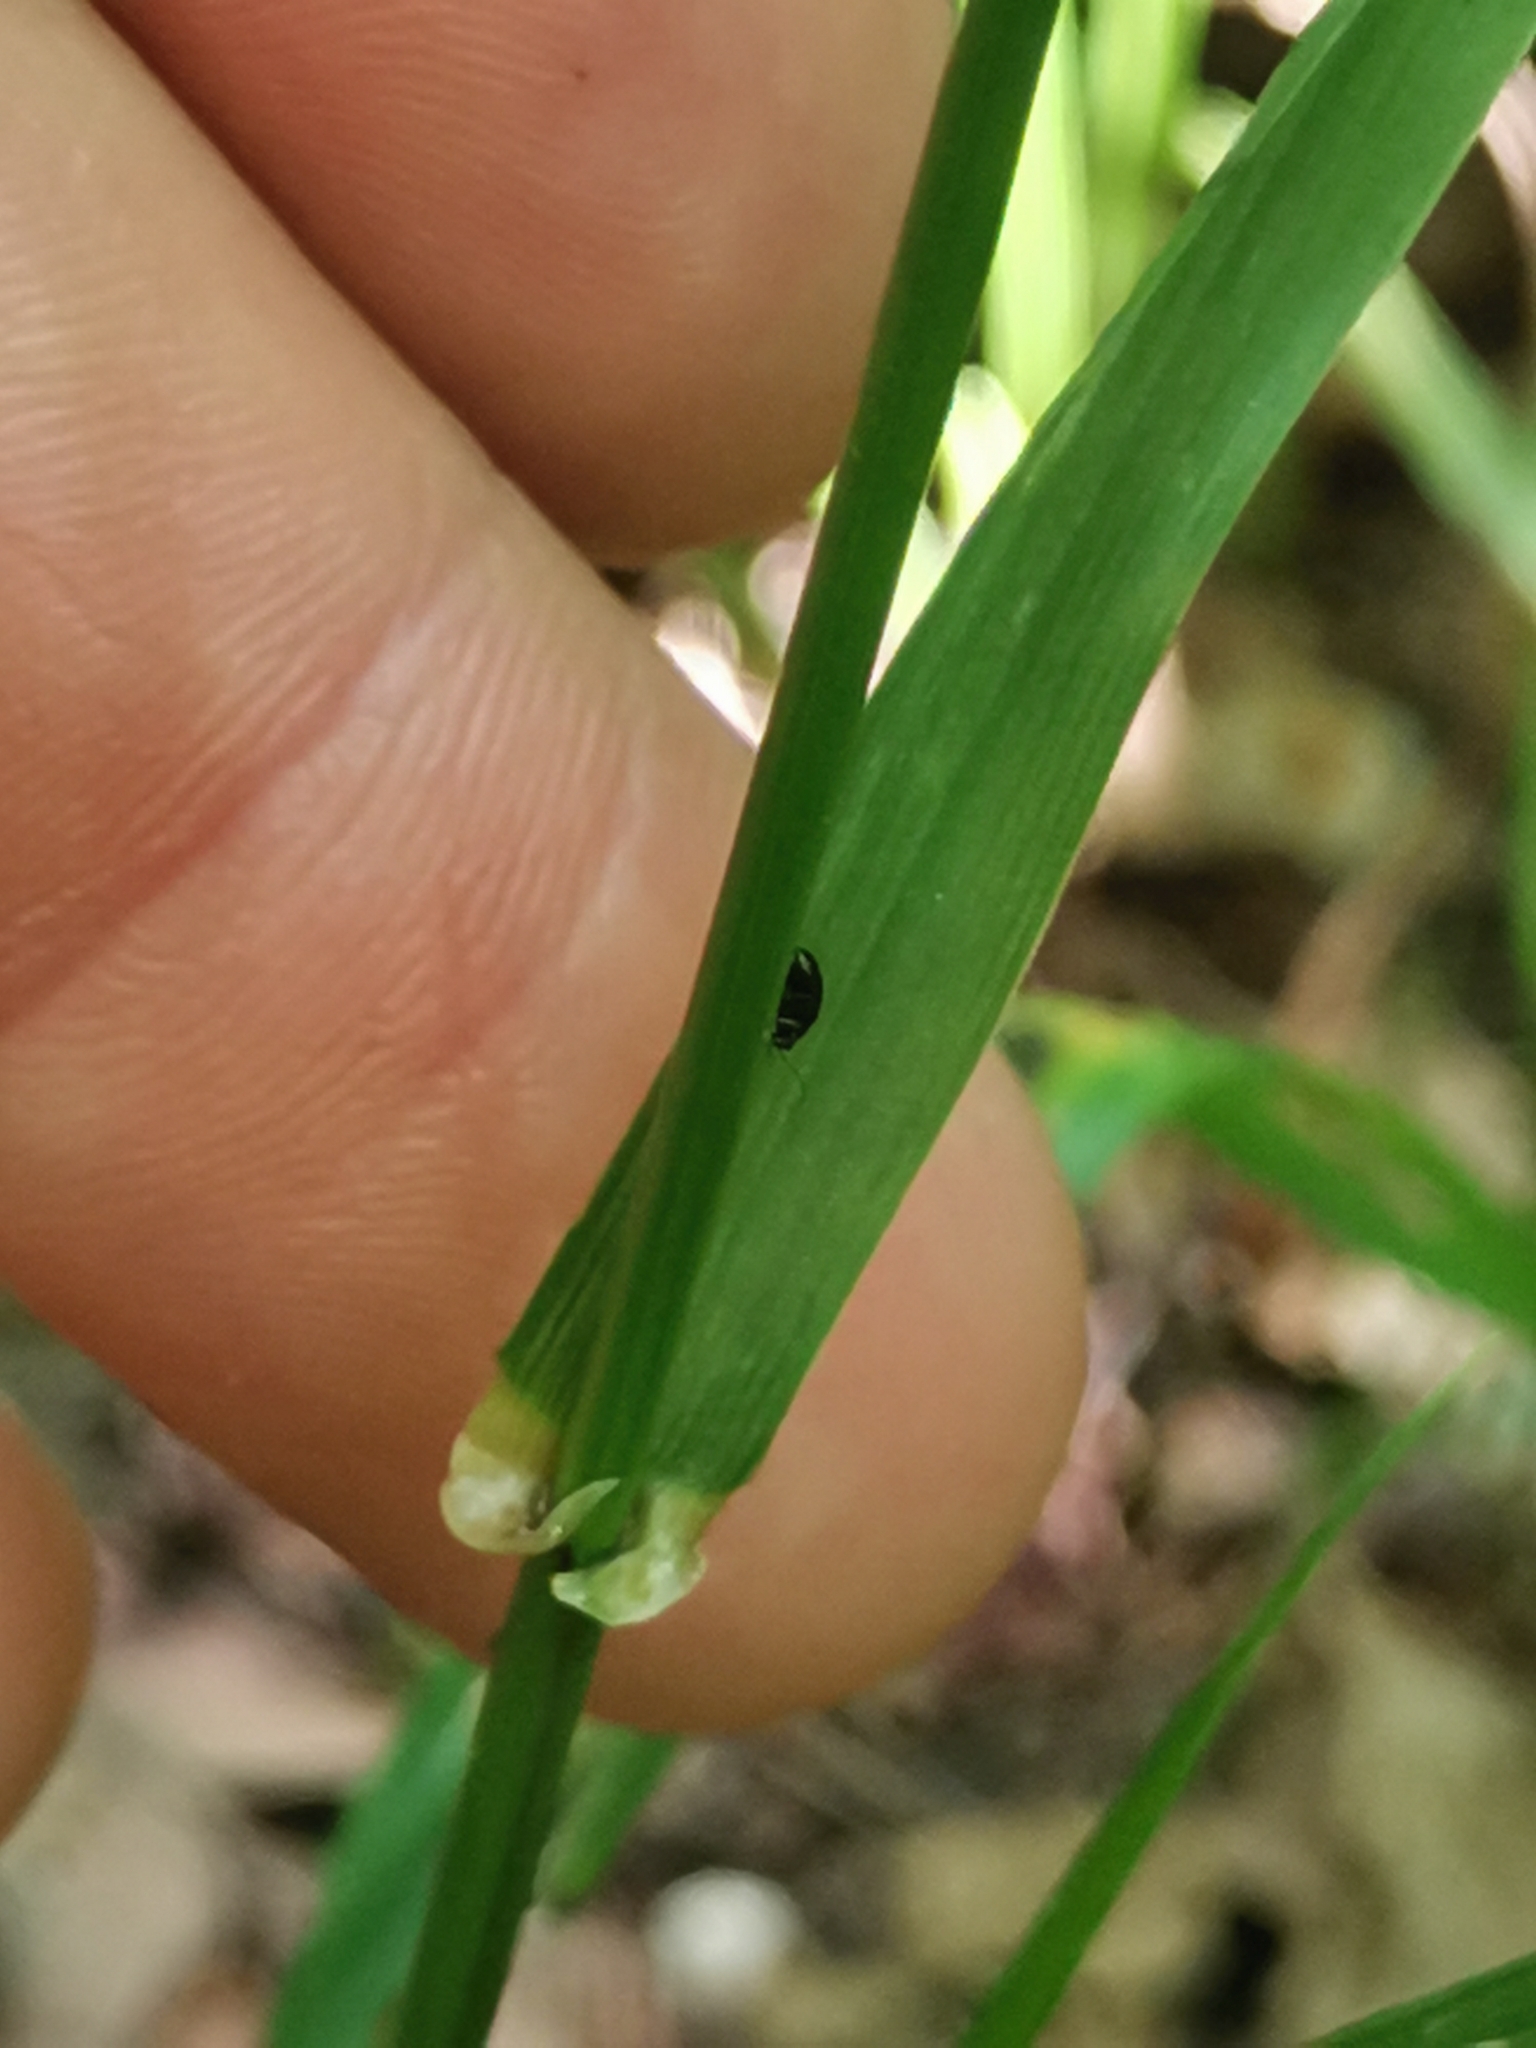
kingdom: Plantae
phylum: Tracheophyta
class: Liliopsida
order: Poales
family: Poaceae
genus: Lolium
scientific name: Lolium giganteum
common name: Giant fescue
